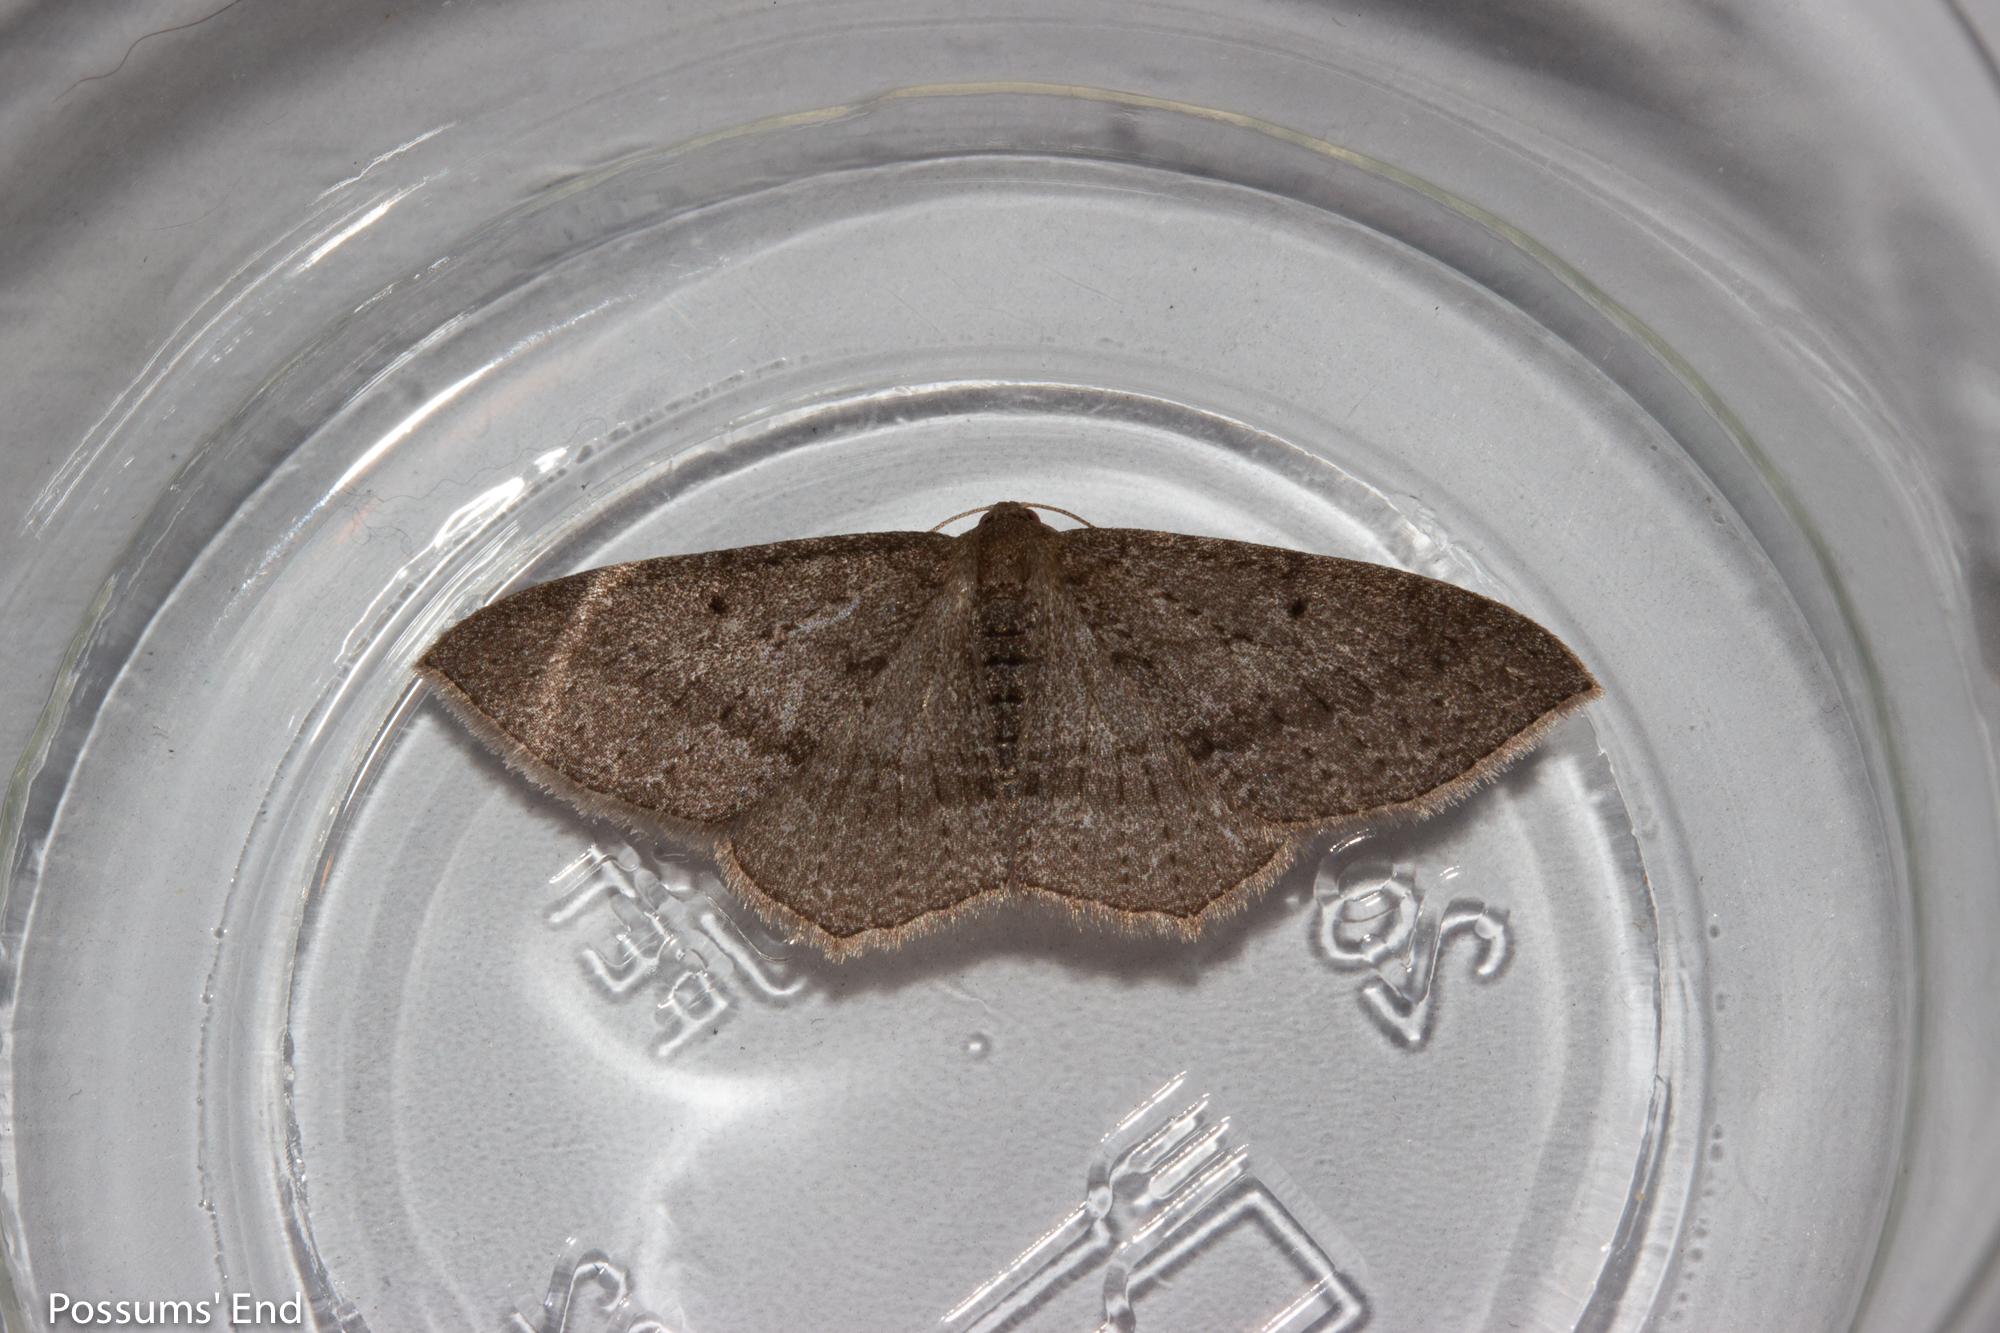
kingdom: Animalia
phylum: Arthropoda
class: Insecta
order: Lepidoptera
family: Geometridae
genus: Poecilasthena
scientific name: Poecilasthena subpurpureata
